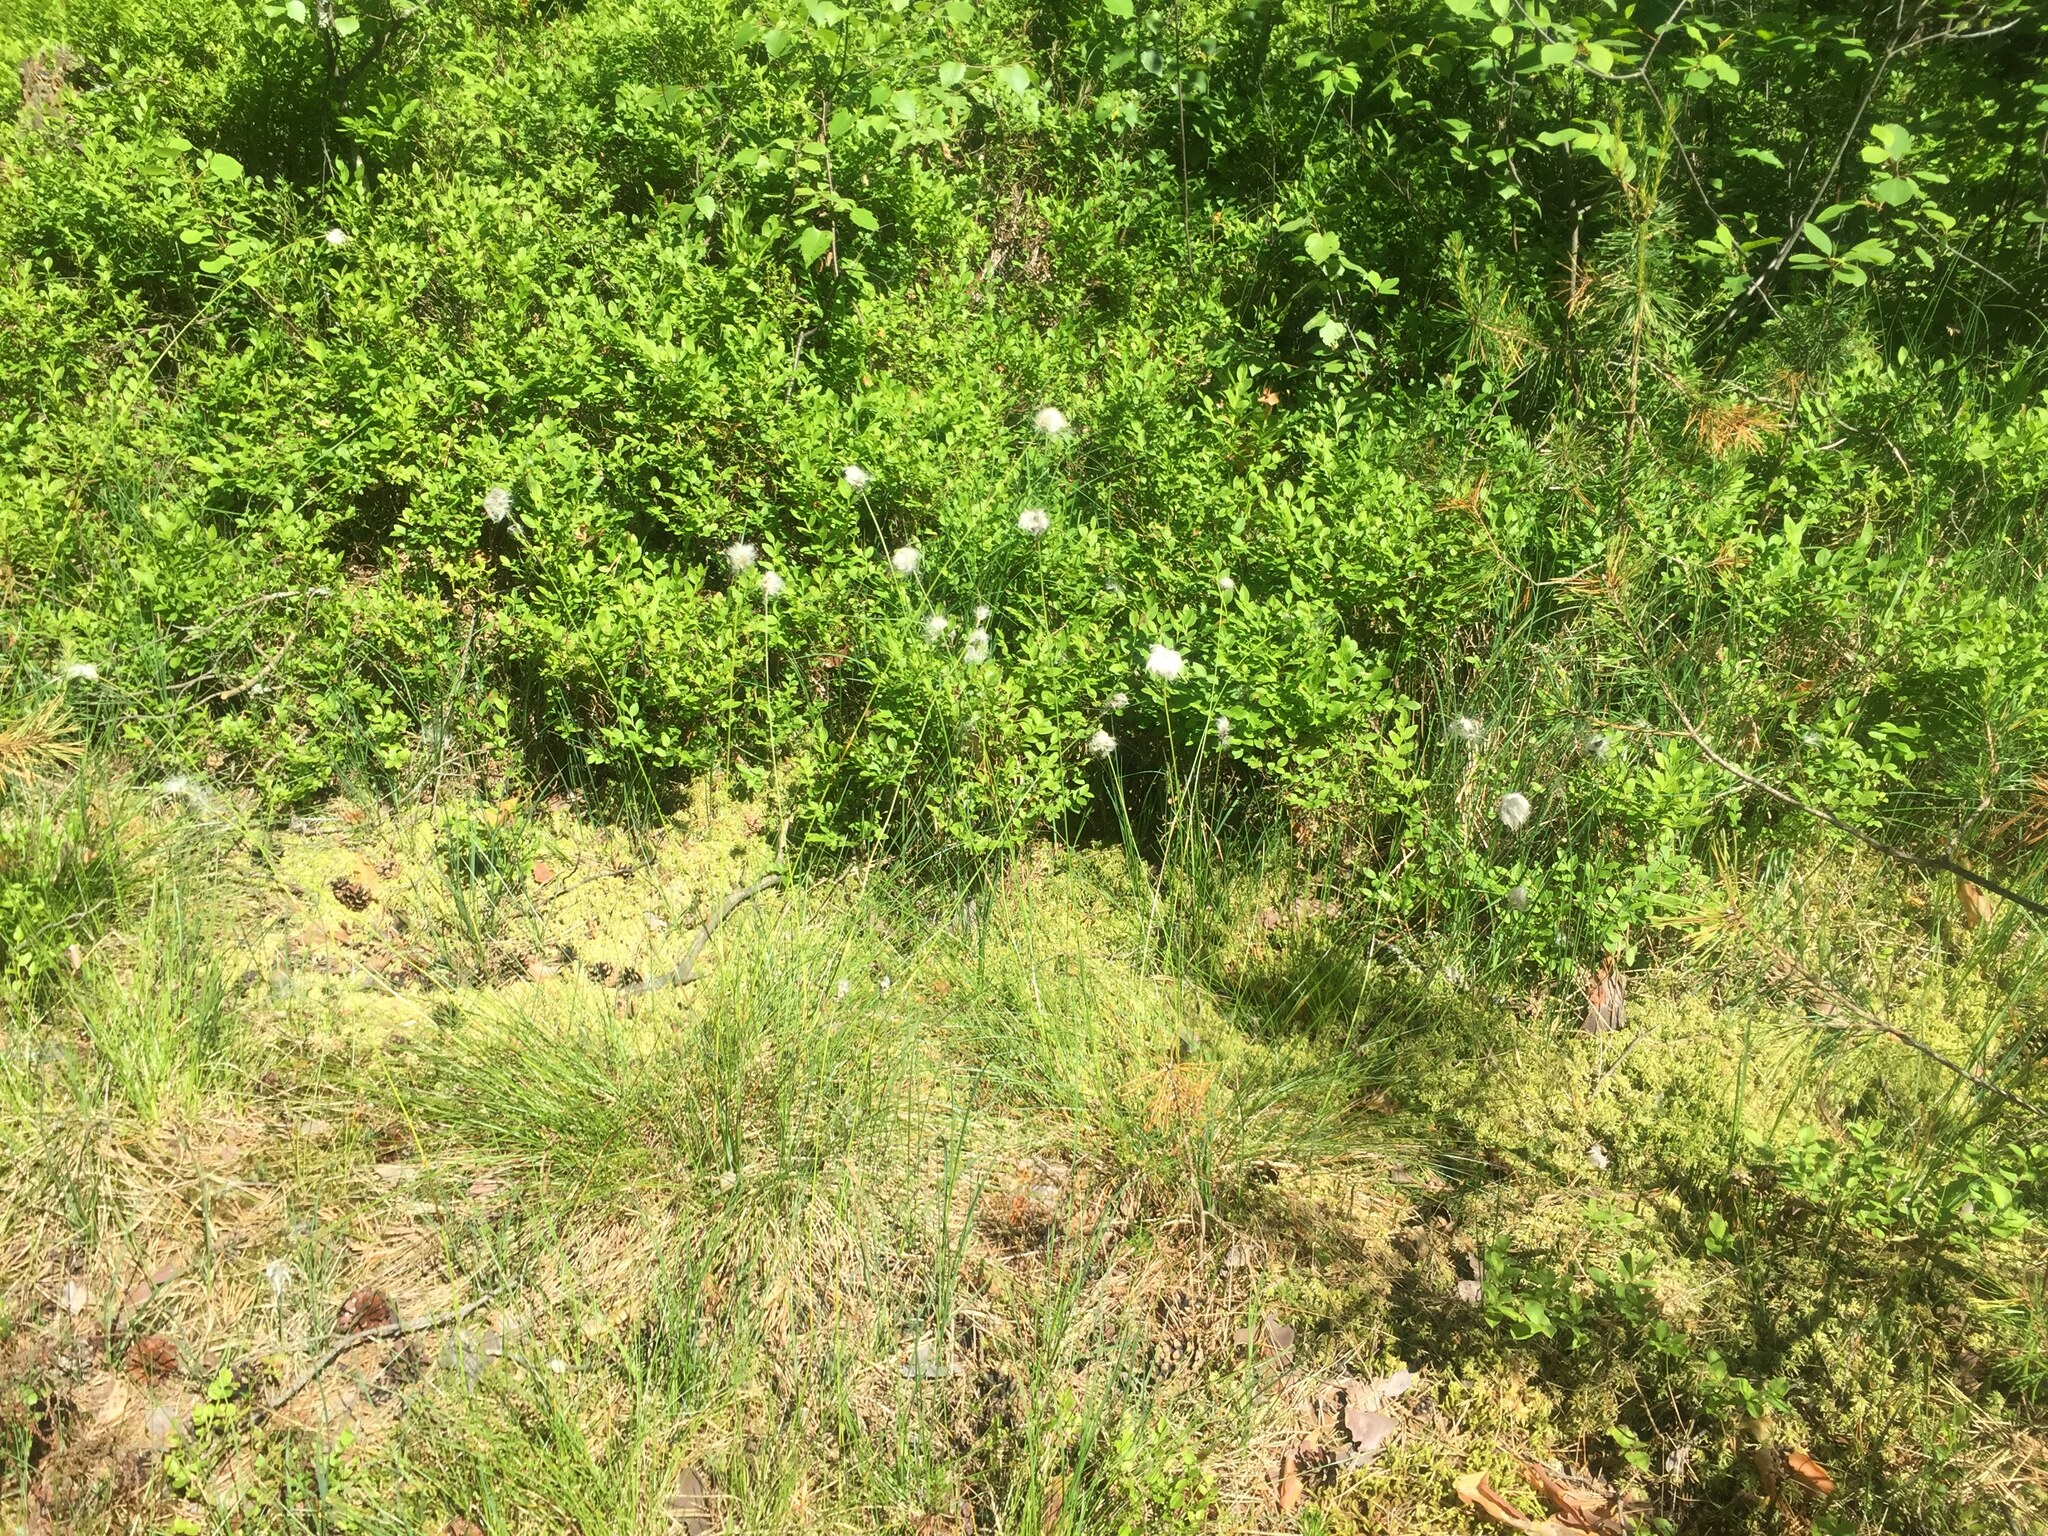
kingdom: Plantae
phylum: Tracheophyta
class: Liliopsida
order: Poales
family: Cyperaceae
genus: Eriophorum
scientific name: Eriophorum vaginatum
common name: Hare's-tail cottongrass
